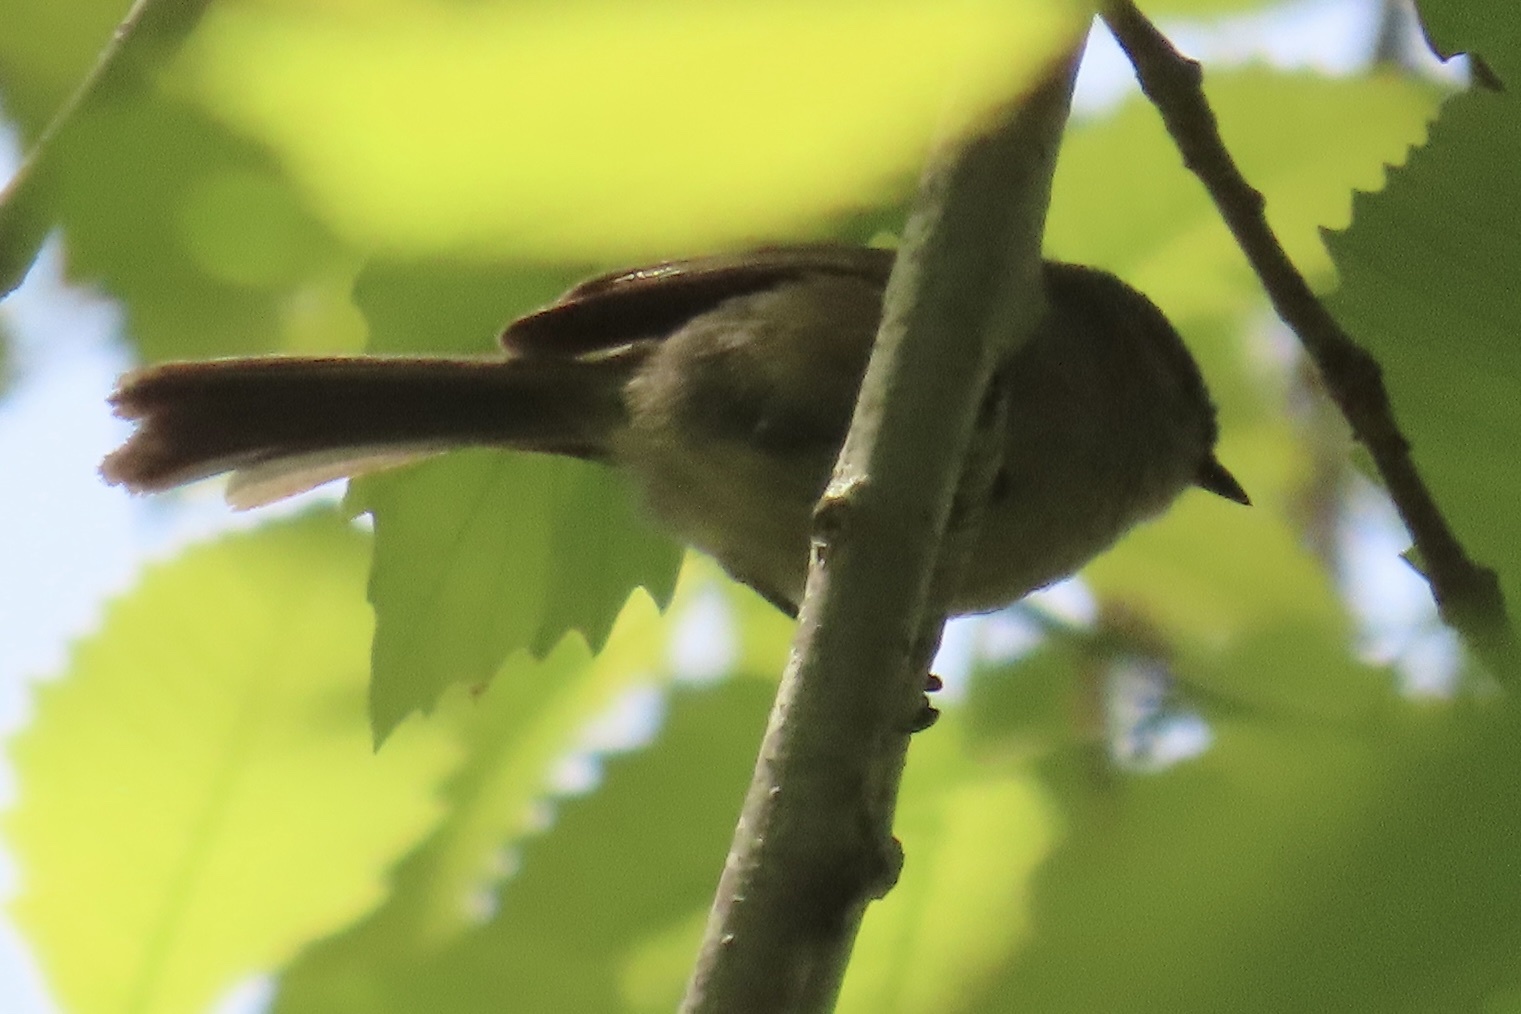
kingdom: Animalia
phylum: Chordata
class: Aves
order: Passeriformes
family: Aegithalidae
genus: Psaltriparus
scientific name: Psaltriparus minimus
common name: American bushtit
